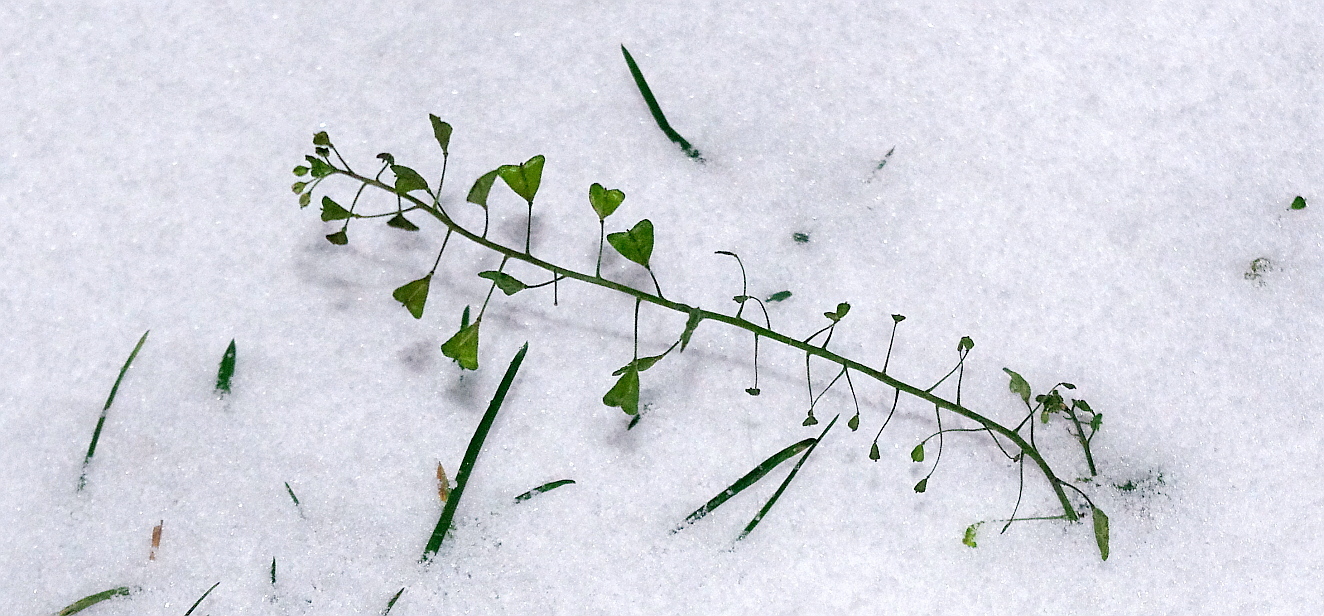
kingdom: Plantae
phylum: Tracheophyta
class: Magnoliopsida
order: Brassicales
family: Brassicaceae
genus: Capsella
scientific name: Capsella bursa-pastoris
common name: Shepherd's purse
